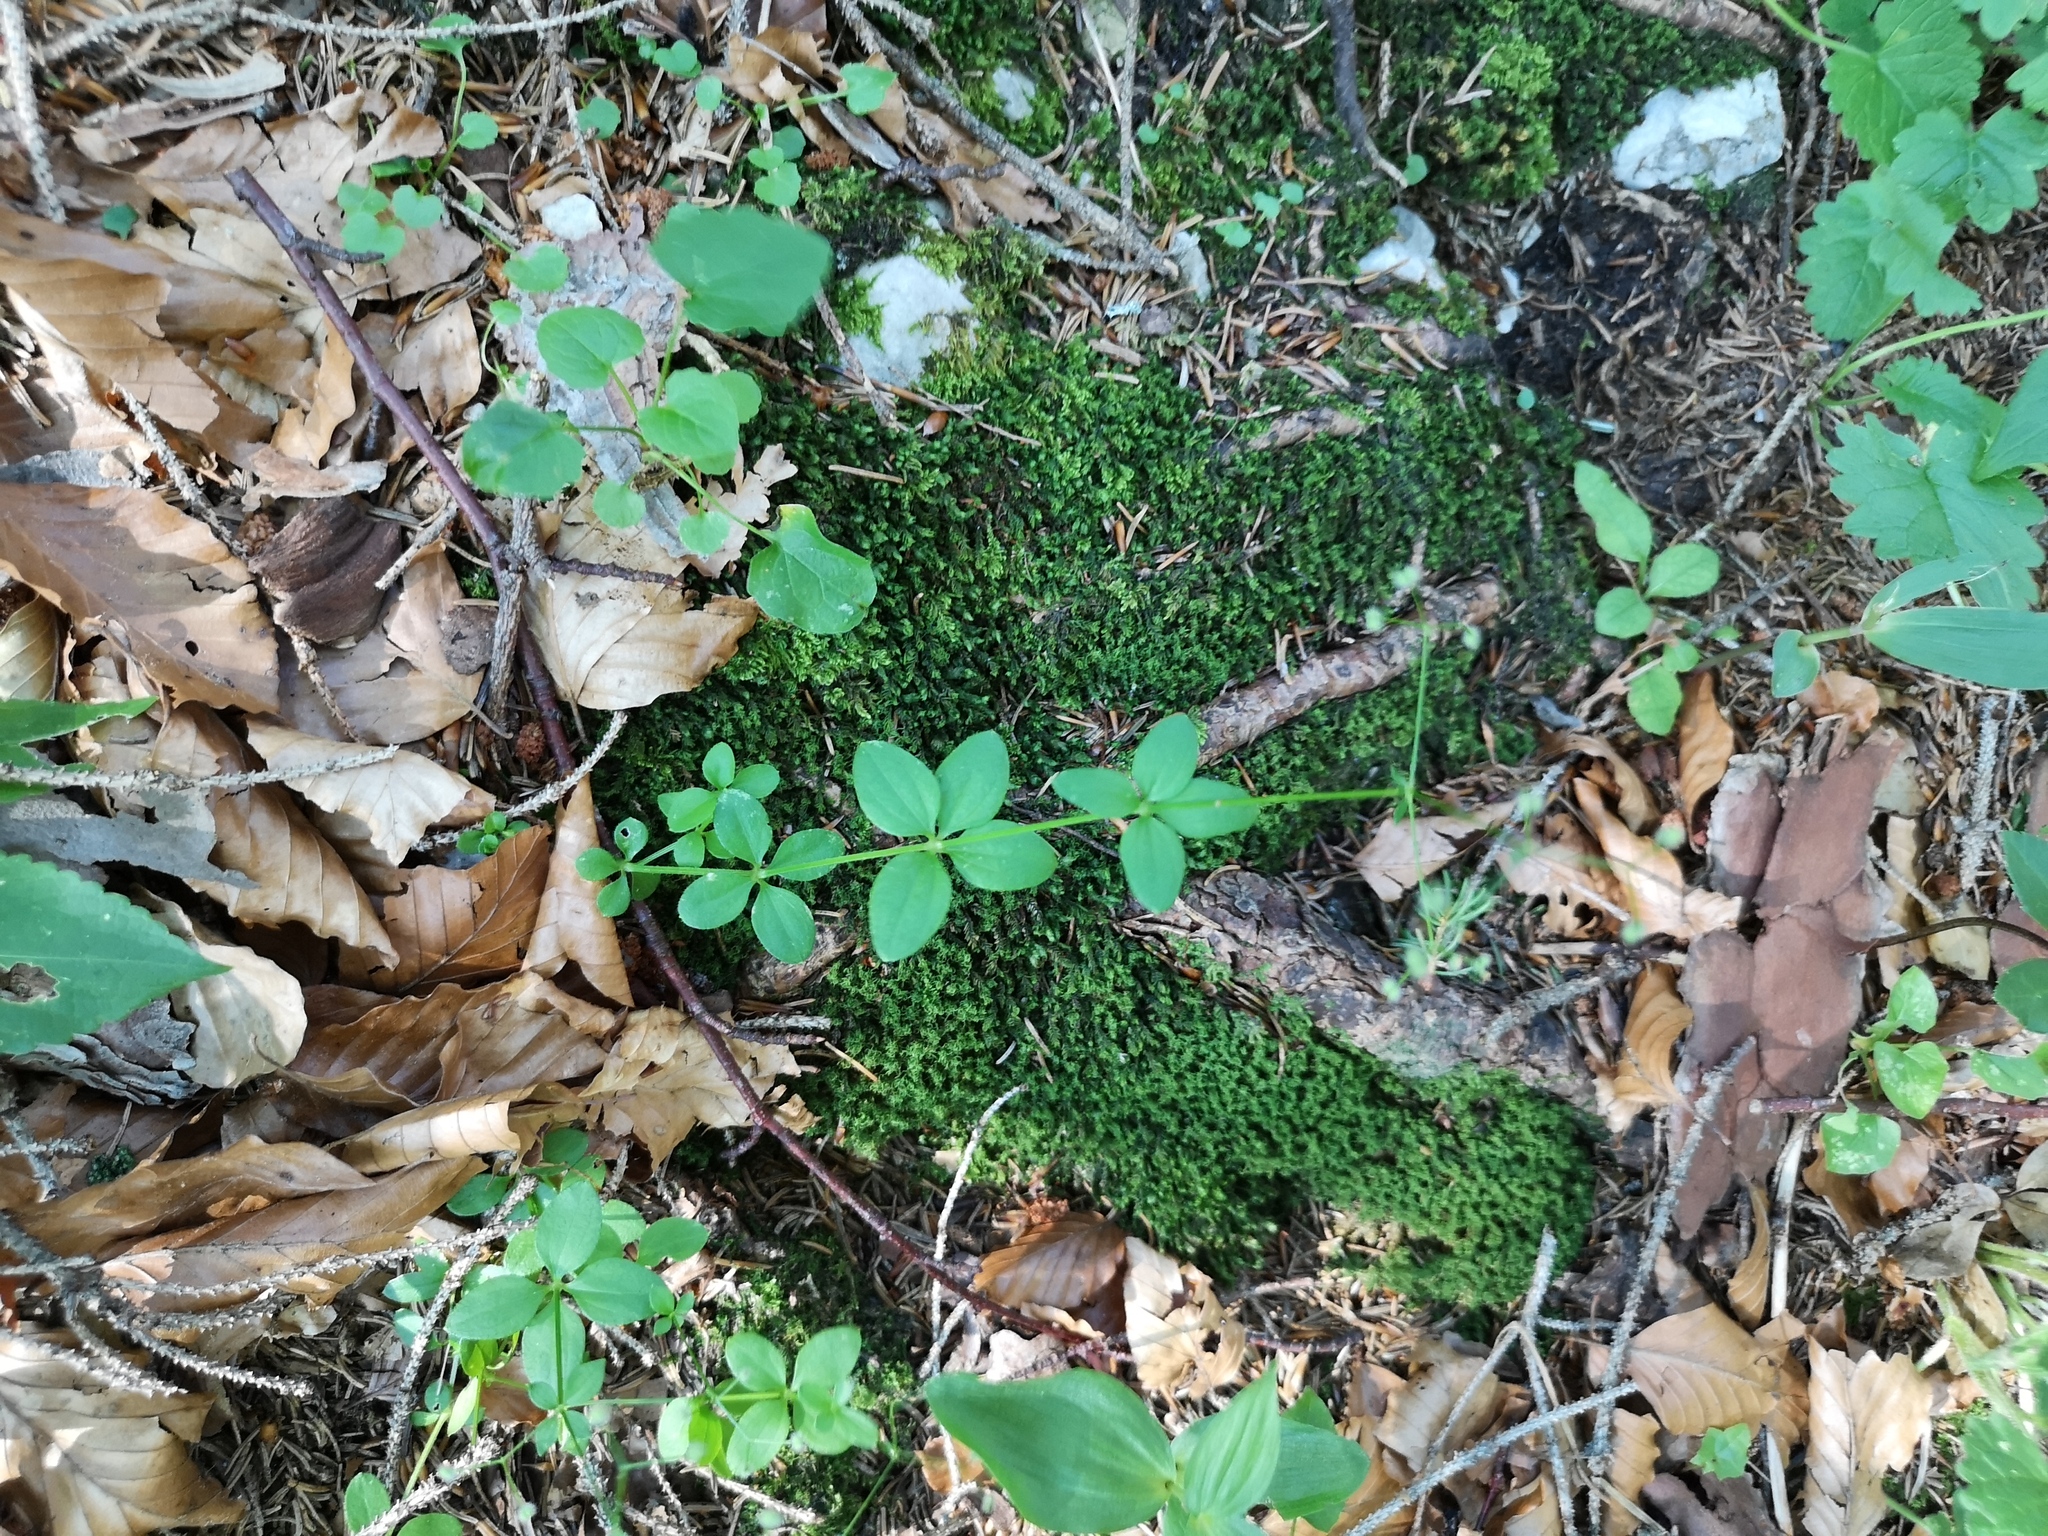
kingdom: Plantae
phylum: Tracheophyta
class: Magnoliopsida
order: Gentianales
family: Rubiaceae
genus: Galium
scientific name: Galium rotundifolium
